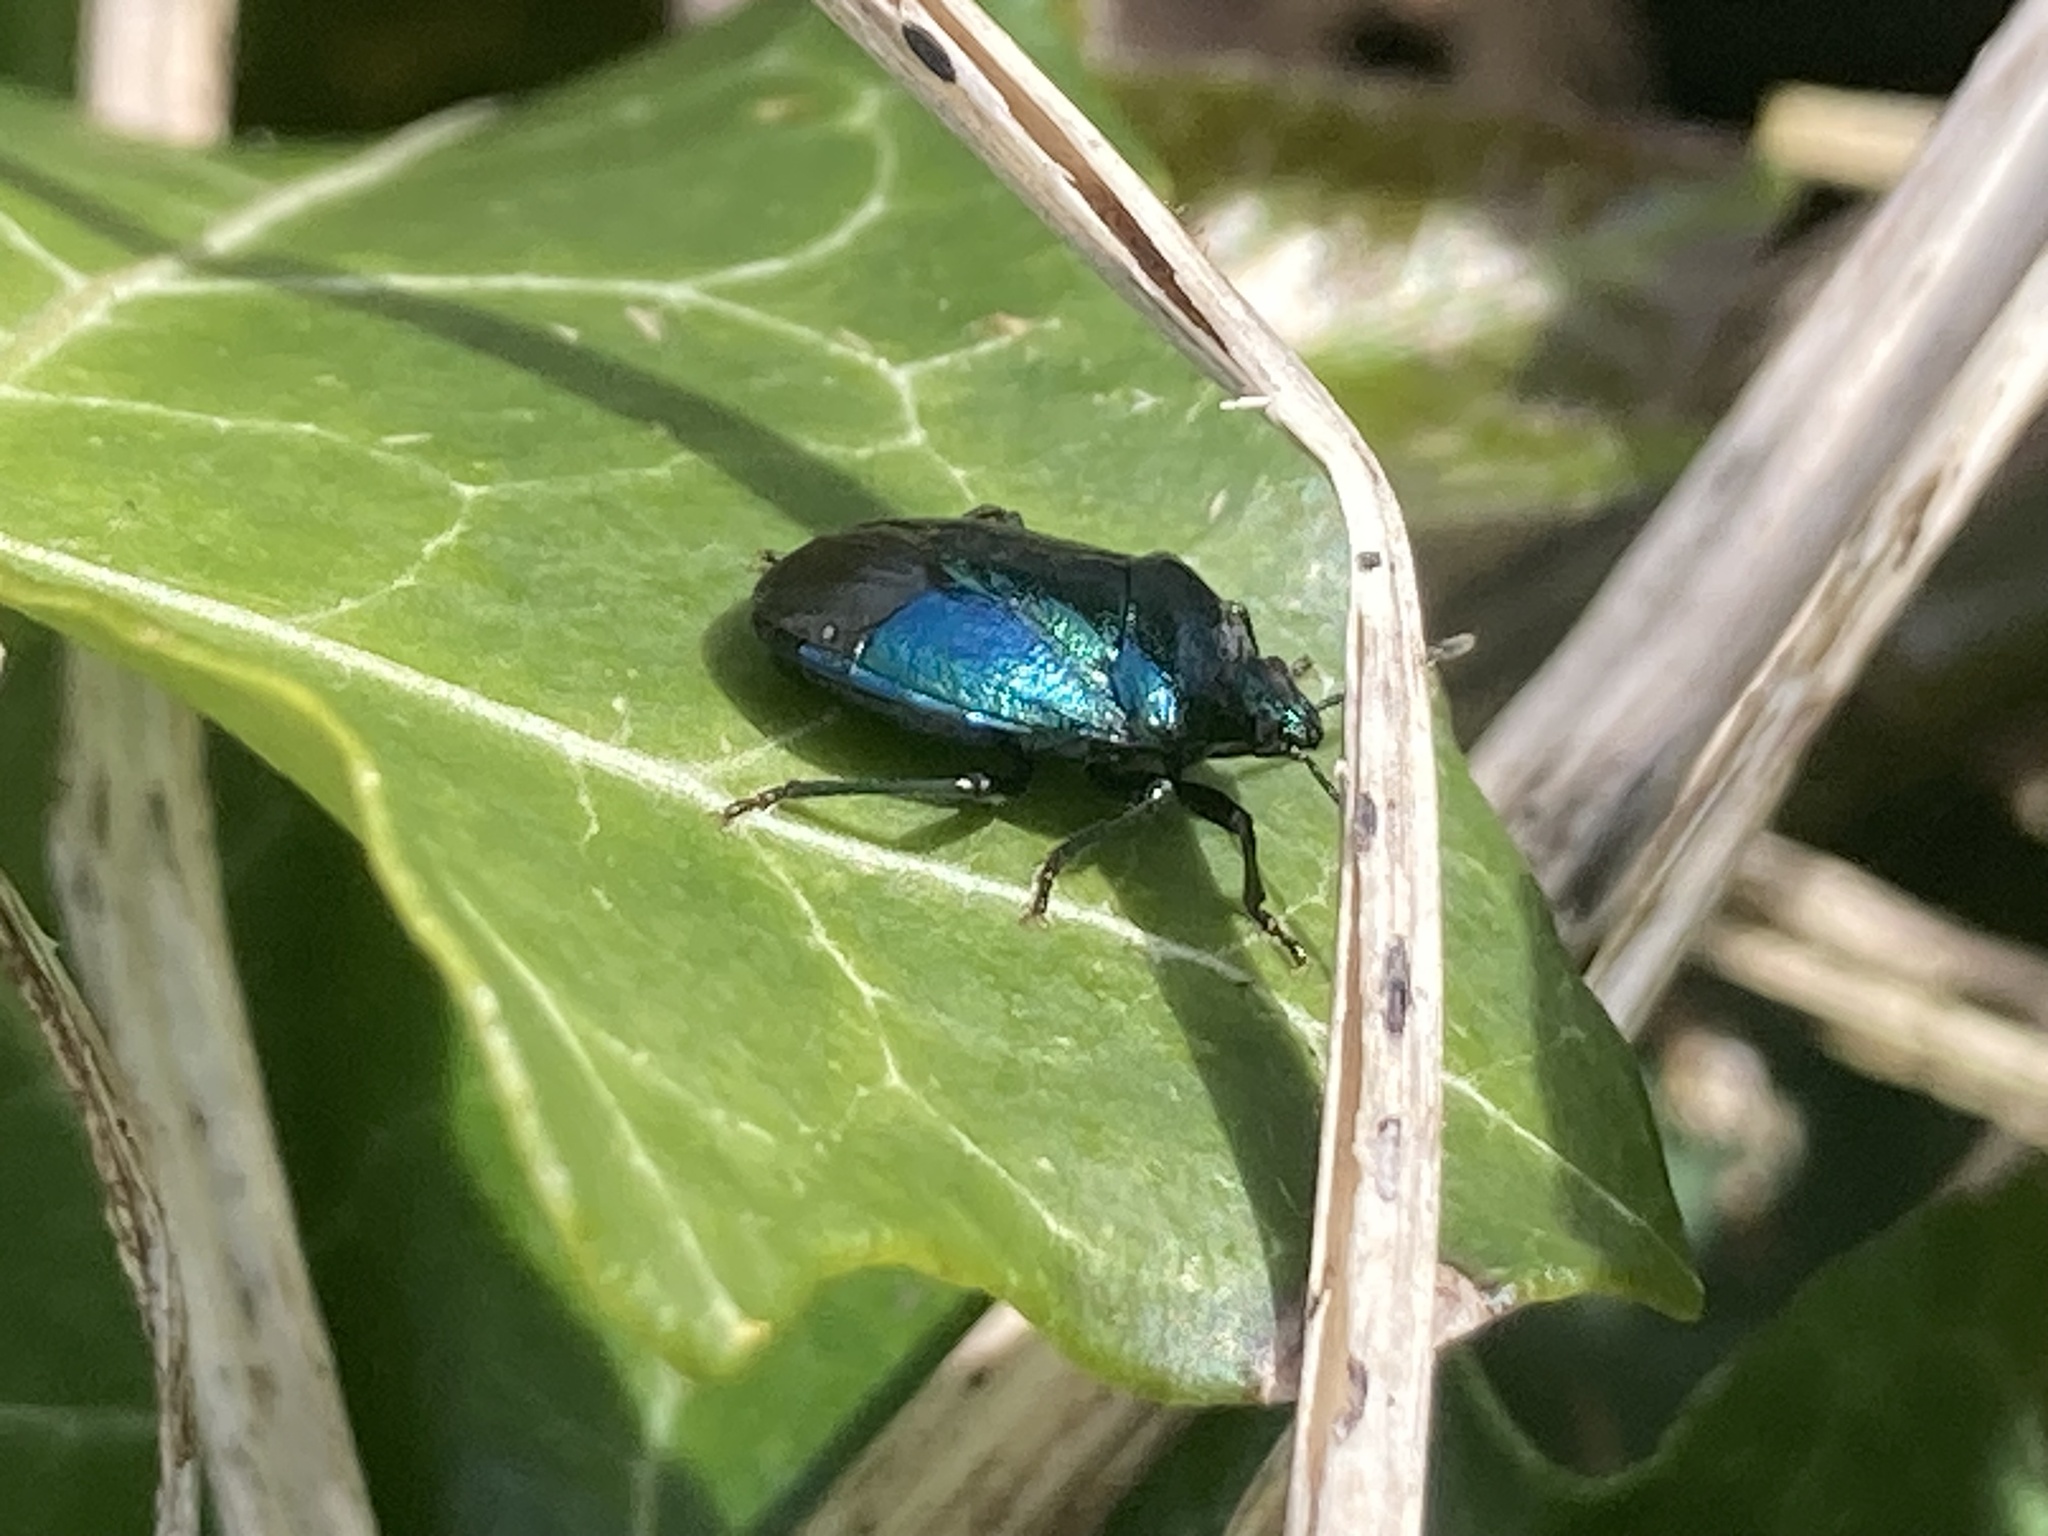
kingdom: Animalia
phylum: Arthropoda
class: Insecta
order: Hemiptera
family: Pentatomidae
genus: Zicrona
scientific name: Zicrona caerulea
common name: Blue shieldbug
